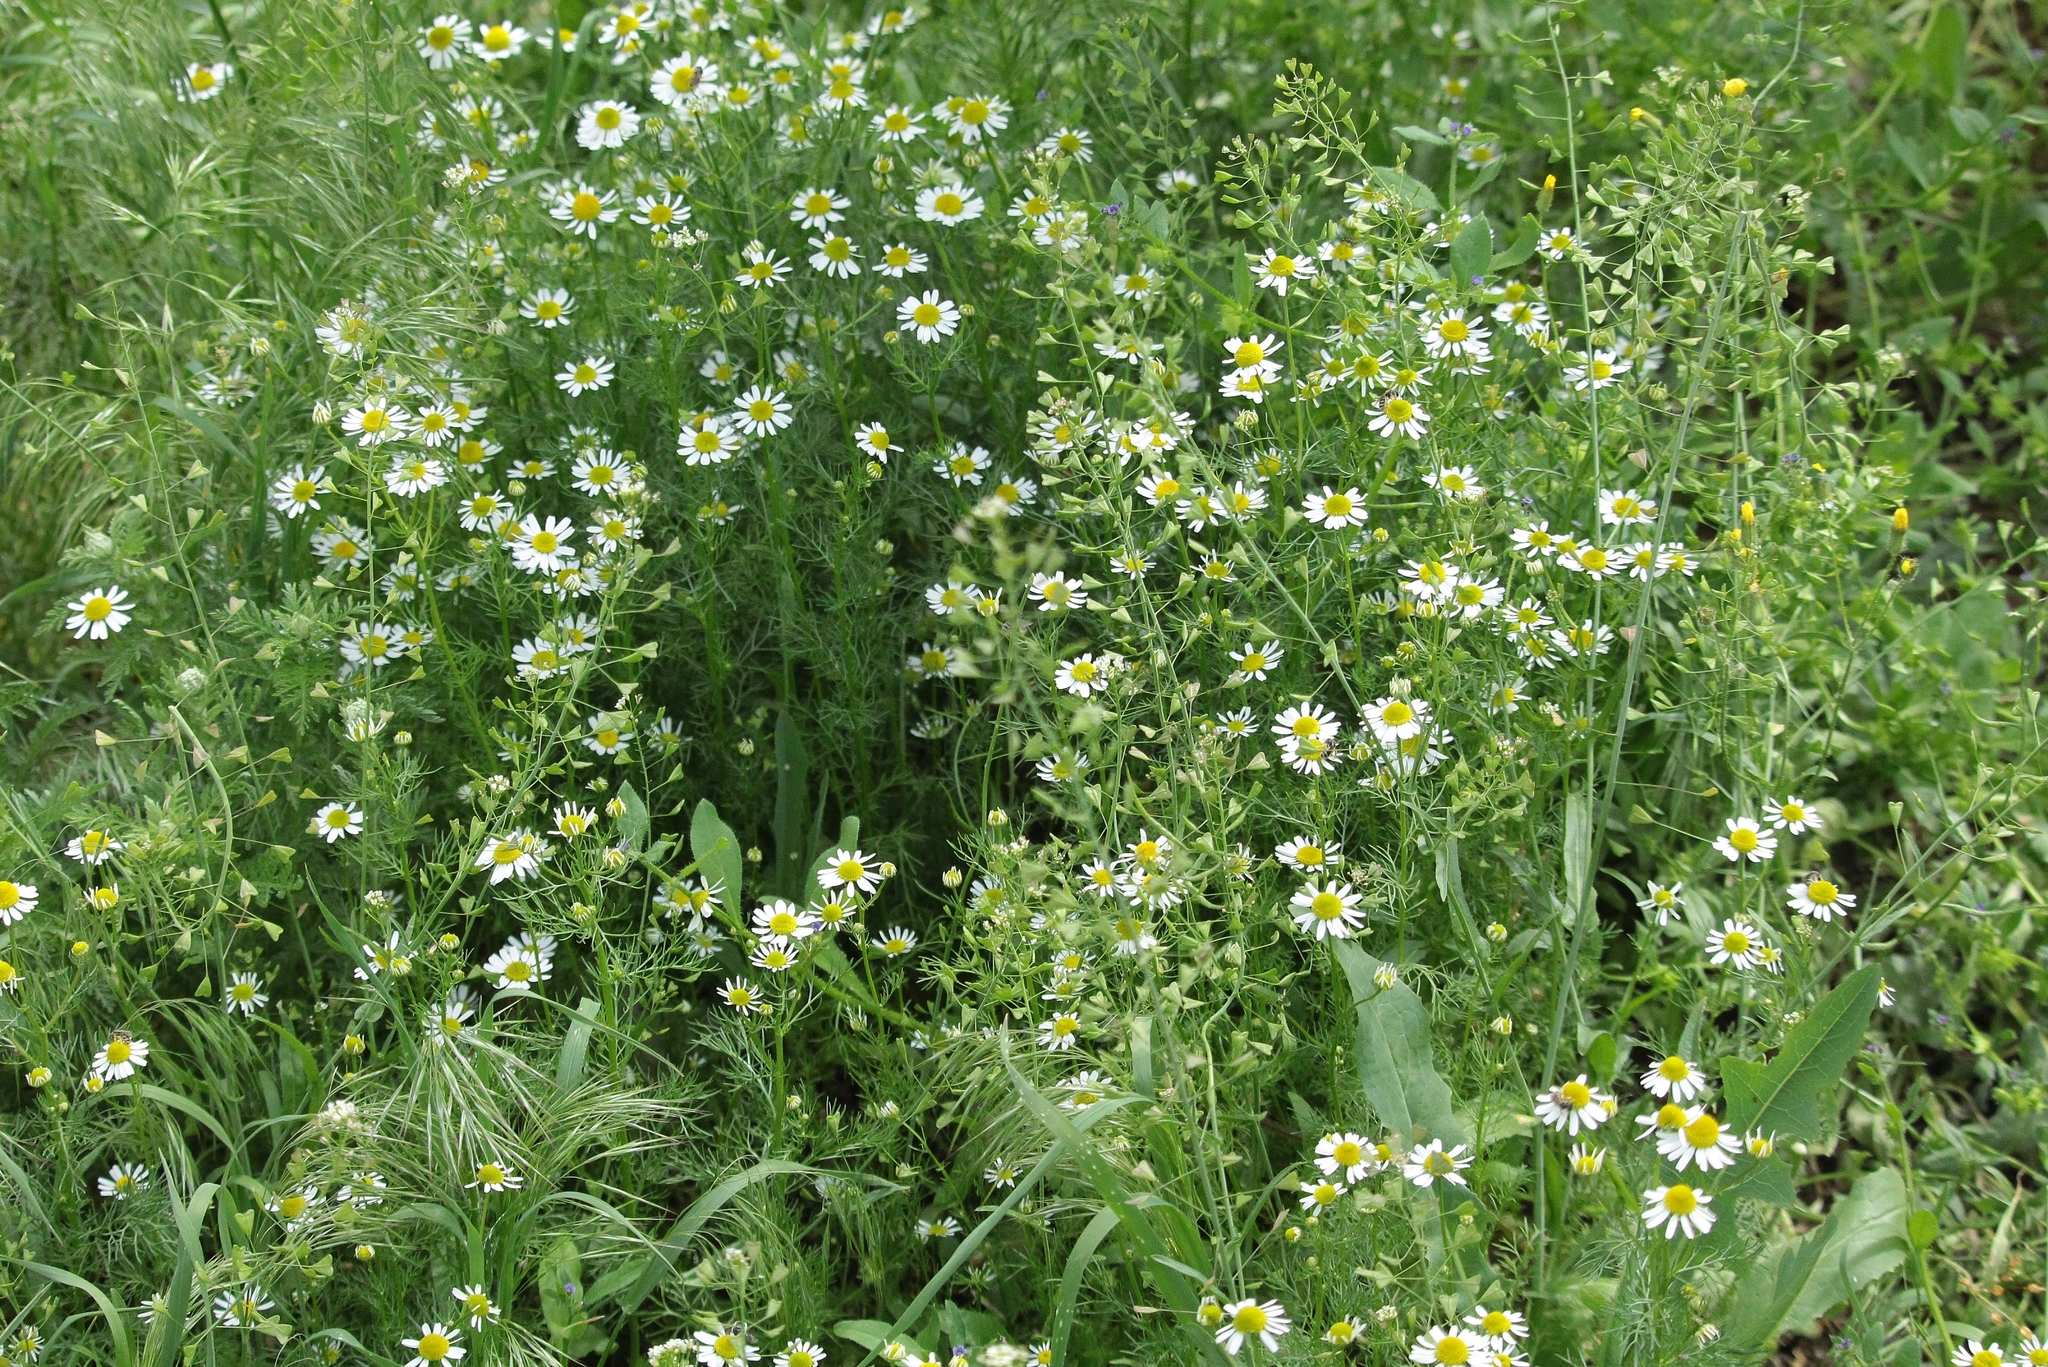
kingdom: Plantae
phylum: Tracheophyta
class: Magnoliopsida
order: Asterales
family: Asteraceae
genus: Matricaria
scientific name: Matricaria chamomilla
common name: Scented mayweed
